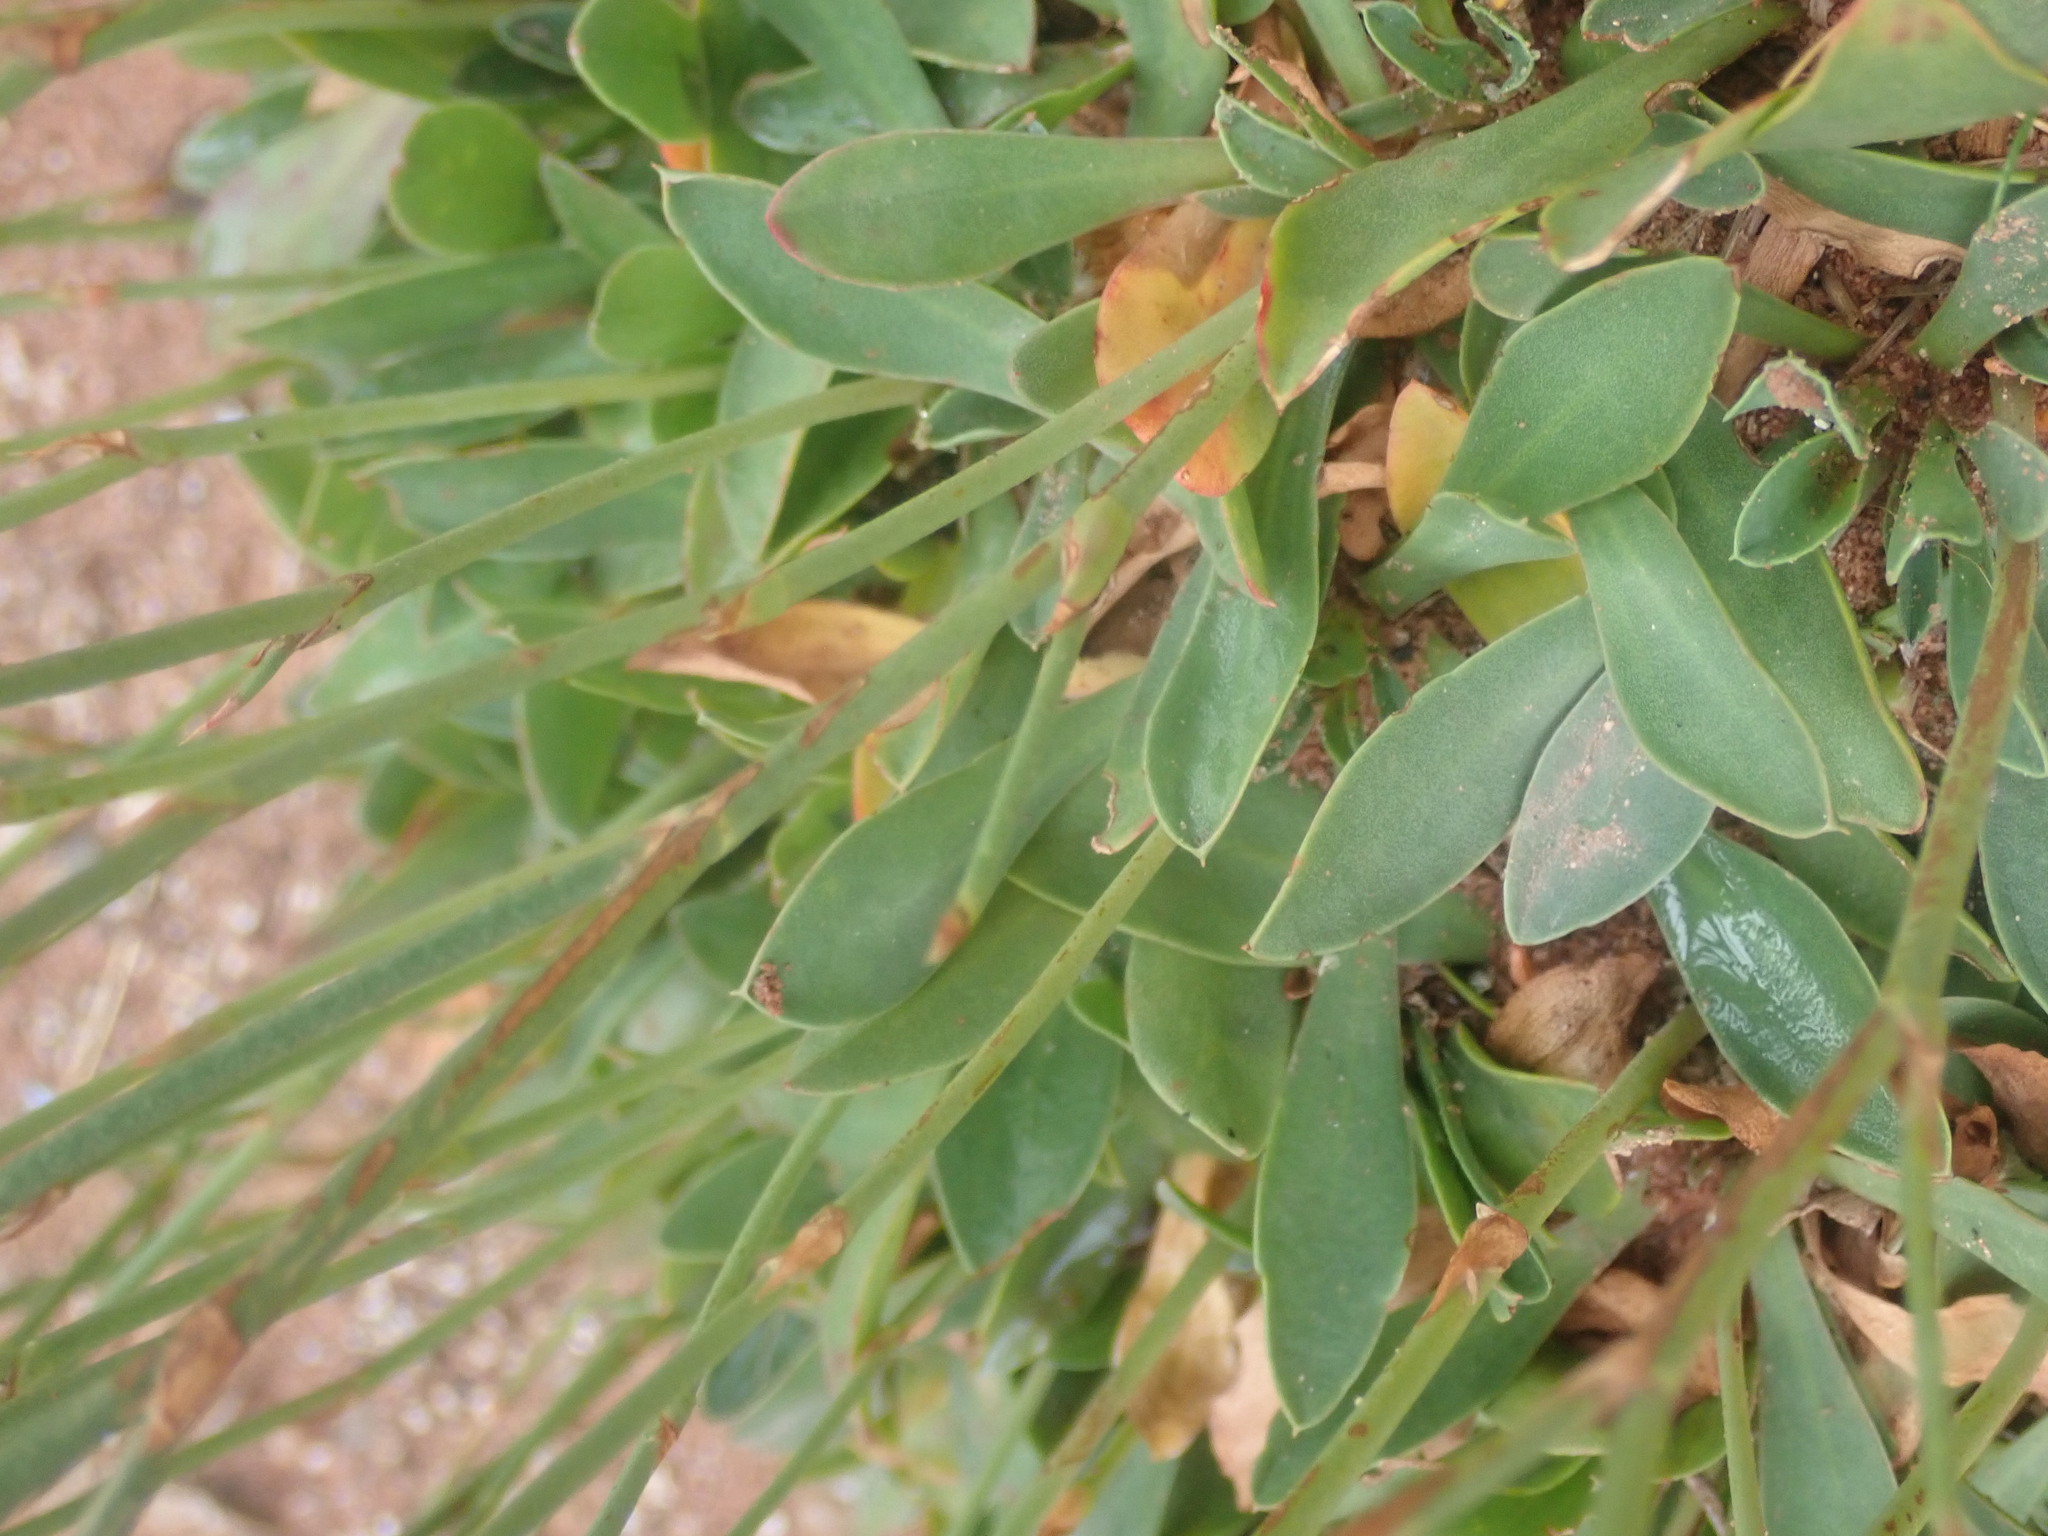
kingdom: Plantae
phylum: Tracheophyta
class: Magnoliopsida
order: Caryophyllales
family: Plumbaginaceae
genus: Limonium
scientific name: Limonium vulgare
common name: Common sea-lavender
